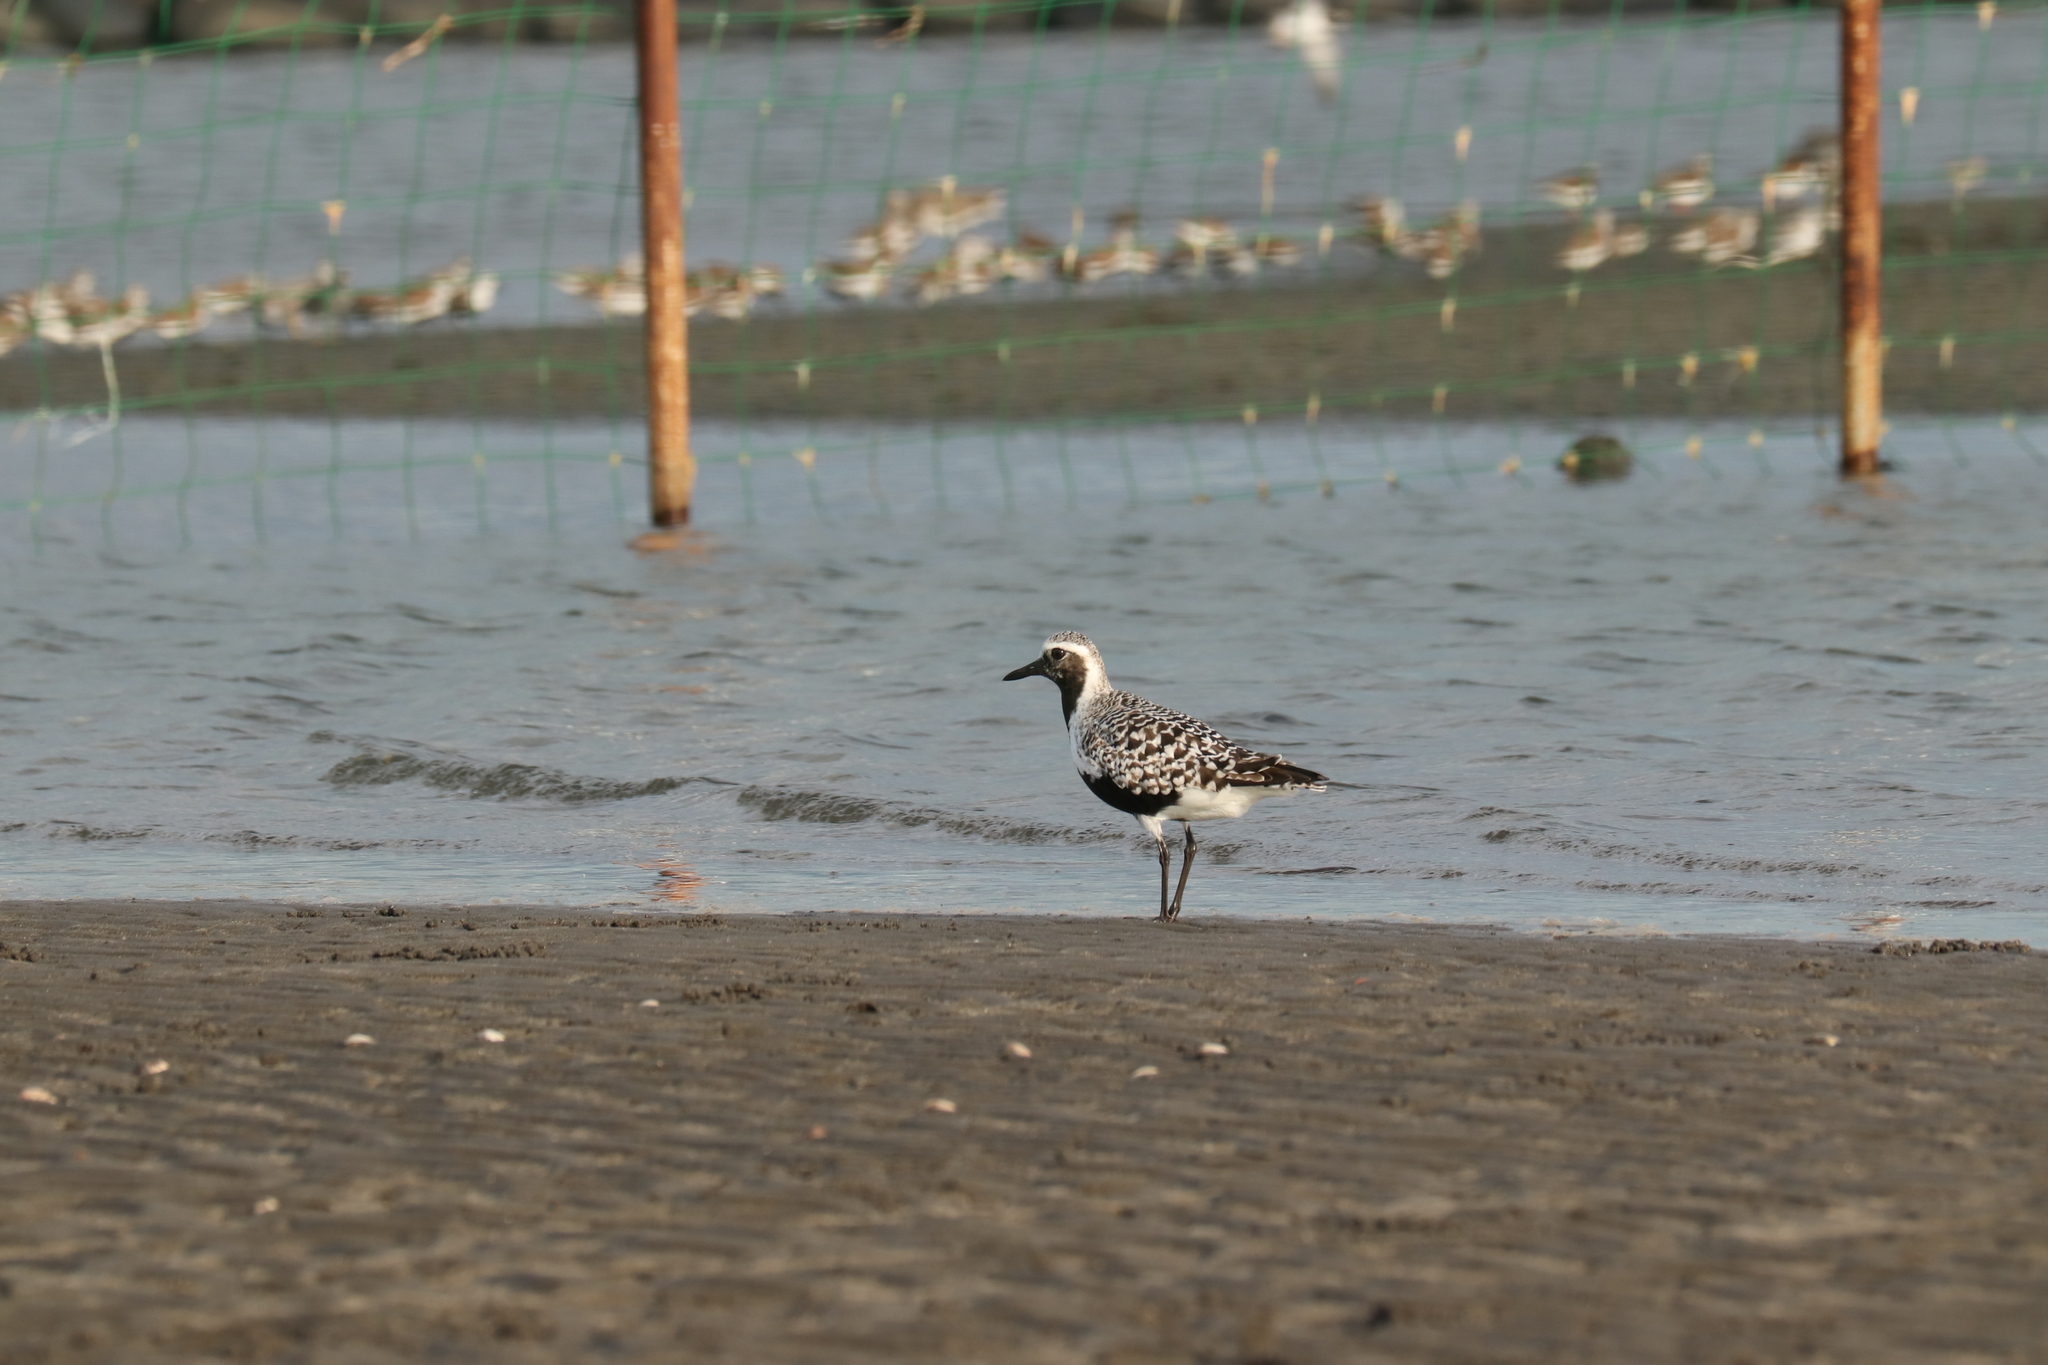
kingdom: Animalia
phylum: Chordata
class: Aves
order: Charadriiformes
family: Charadriidae
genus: Pluvialis
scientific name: Pluvialis squatarola
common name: Grey plover
